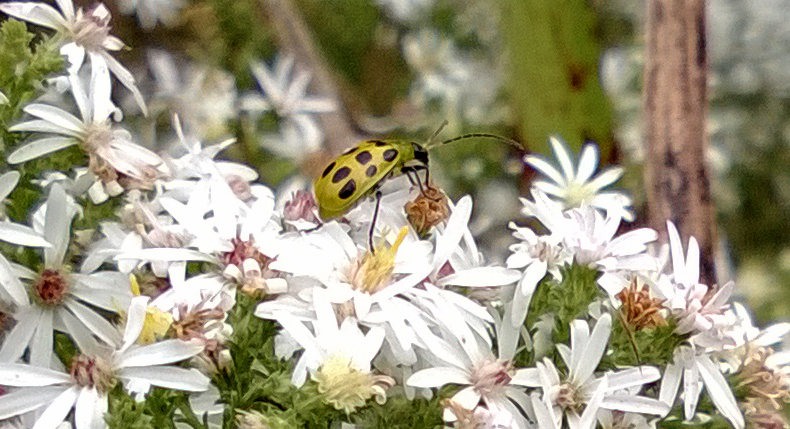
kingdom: Animalia
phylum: Arthropoda
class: Insecta
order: Coleoptera
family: Chrysomelidae
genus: Diabrotica
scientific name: Diabrotica undecimpunctata
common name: Spotted cucumber beetle
